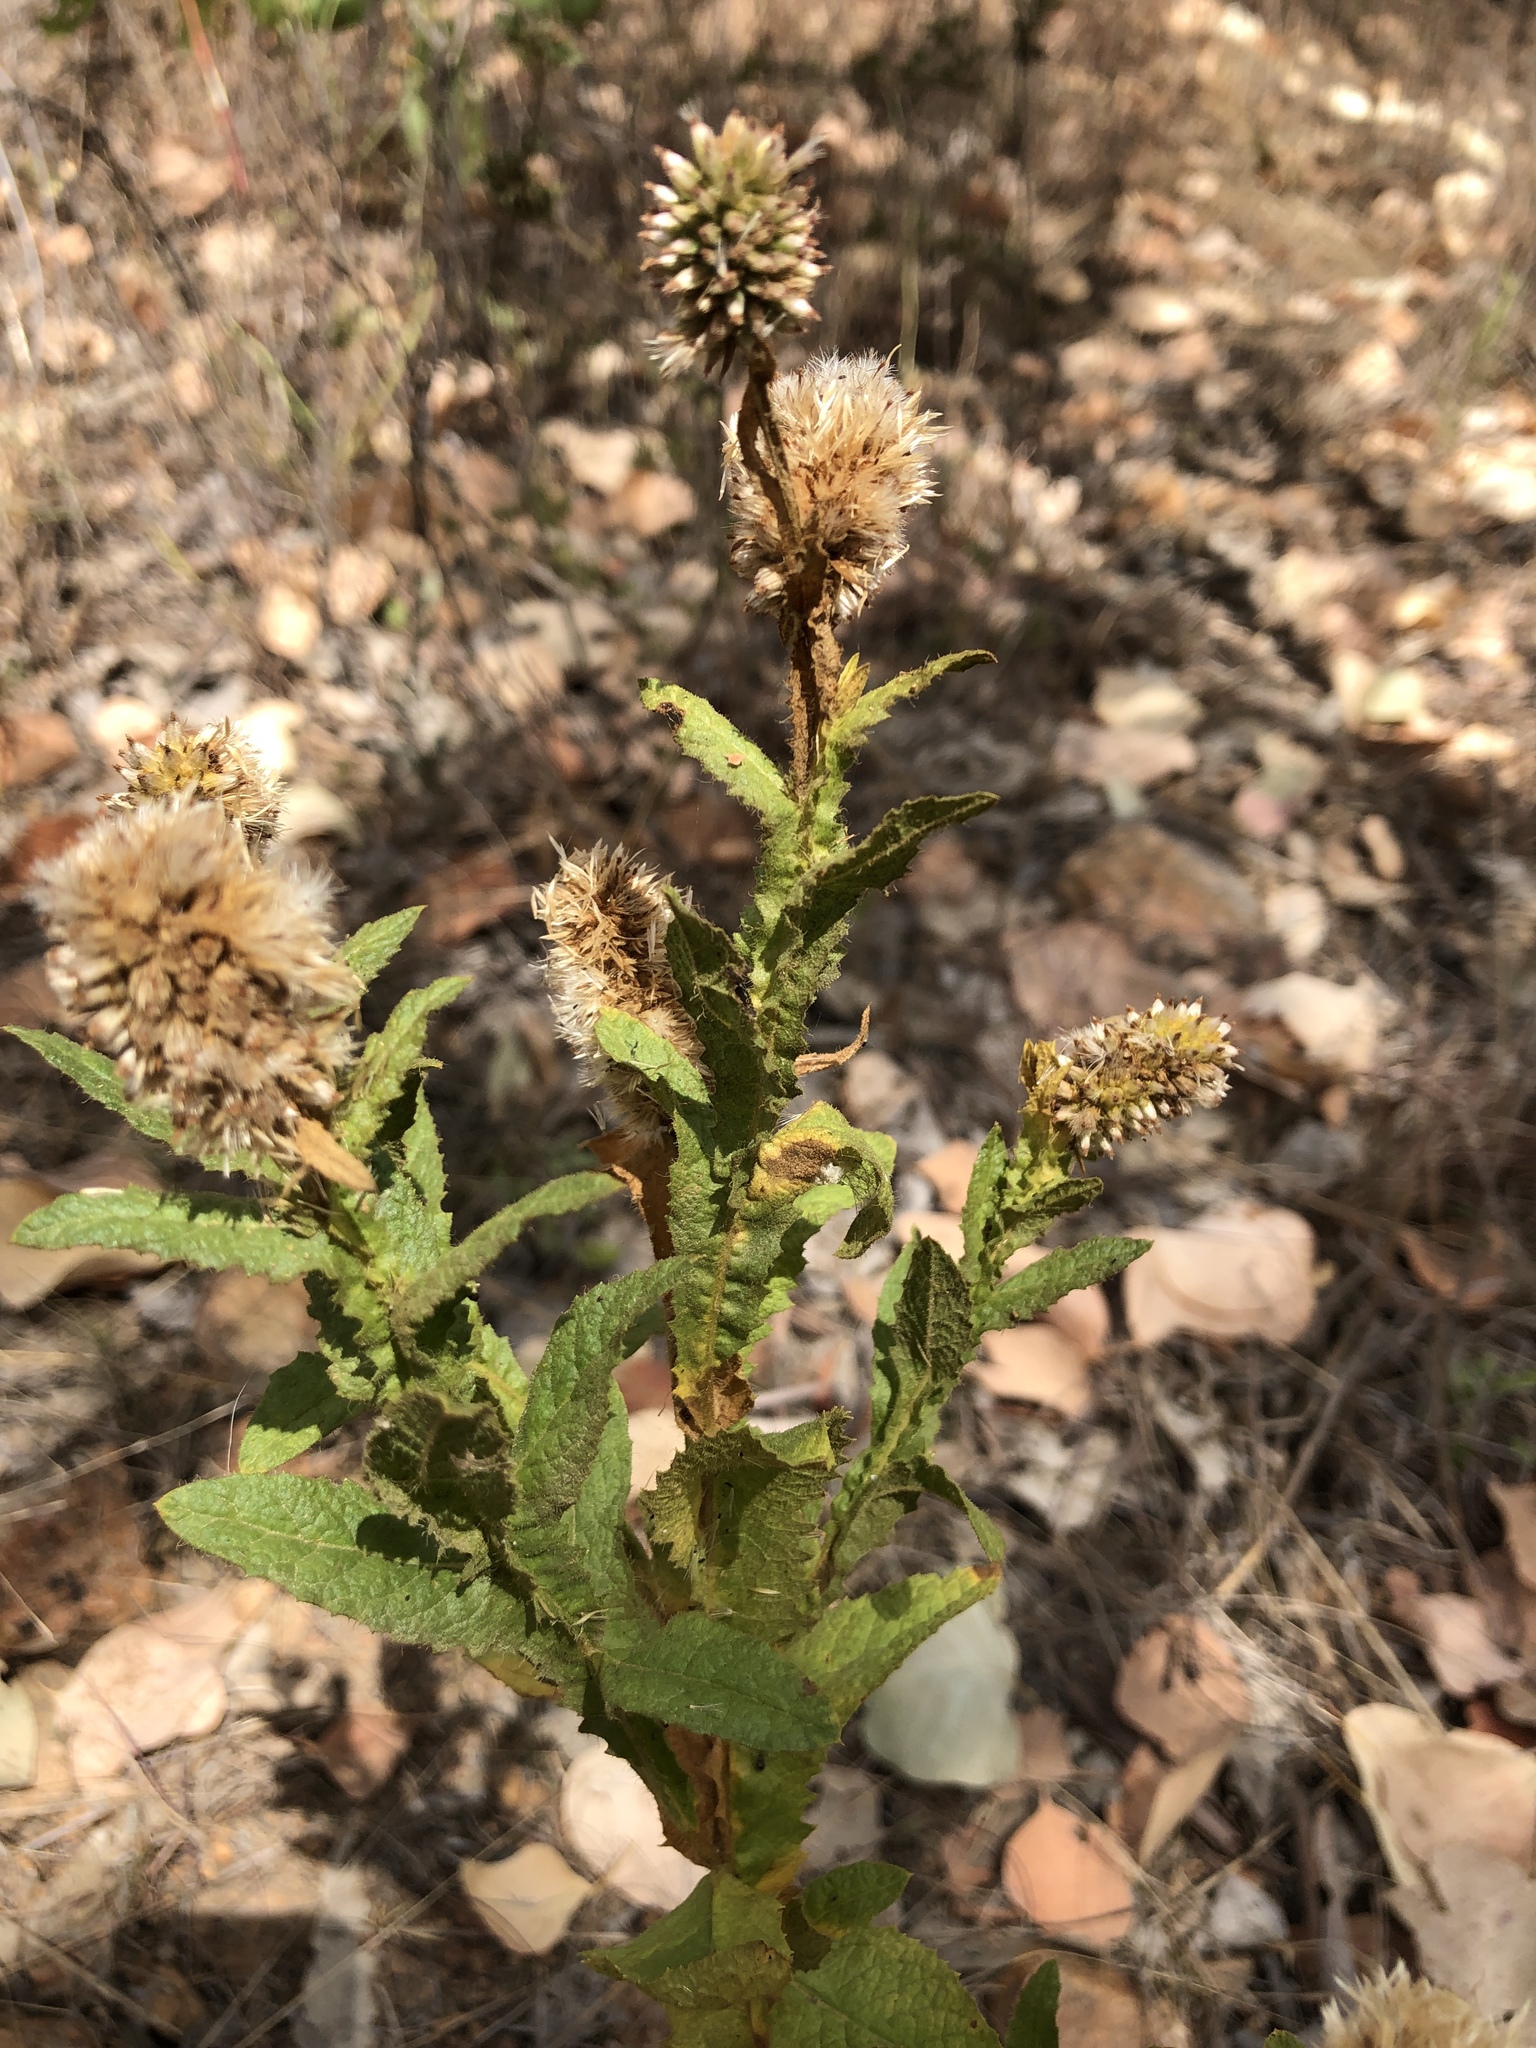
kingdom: Plantae
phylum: Tracheophyta
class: Magnoliopsida
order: Asterales
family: Asteraceae
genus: Pterocaulon
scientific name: Pterocaulon serrulatum
